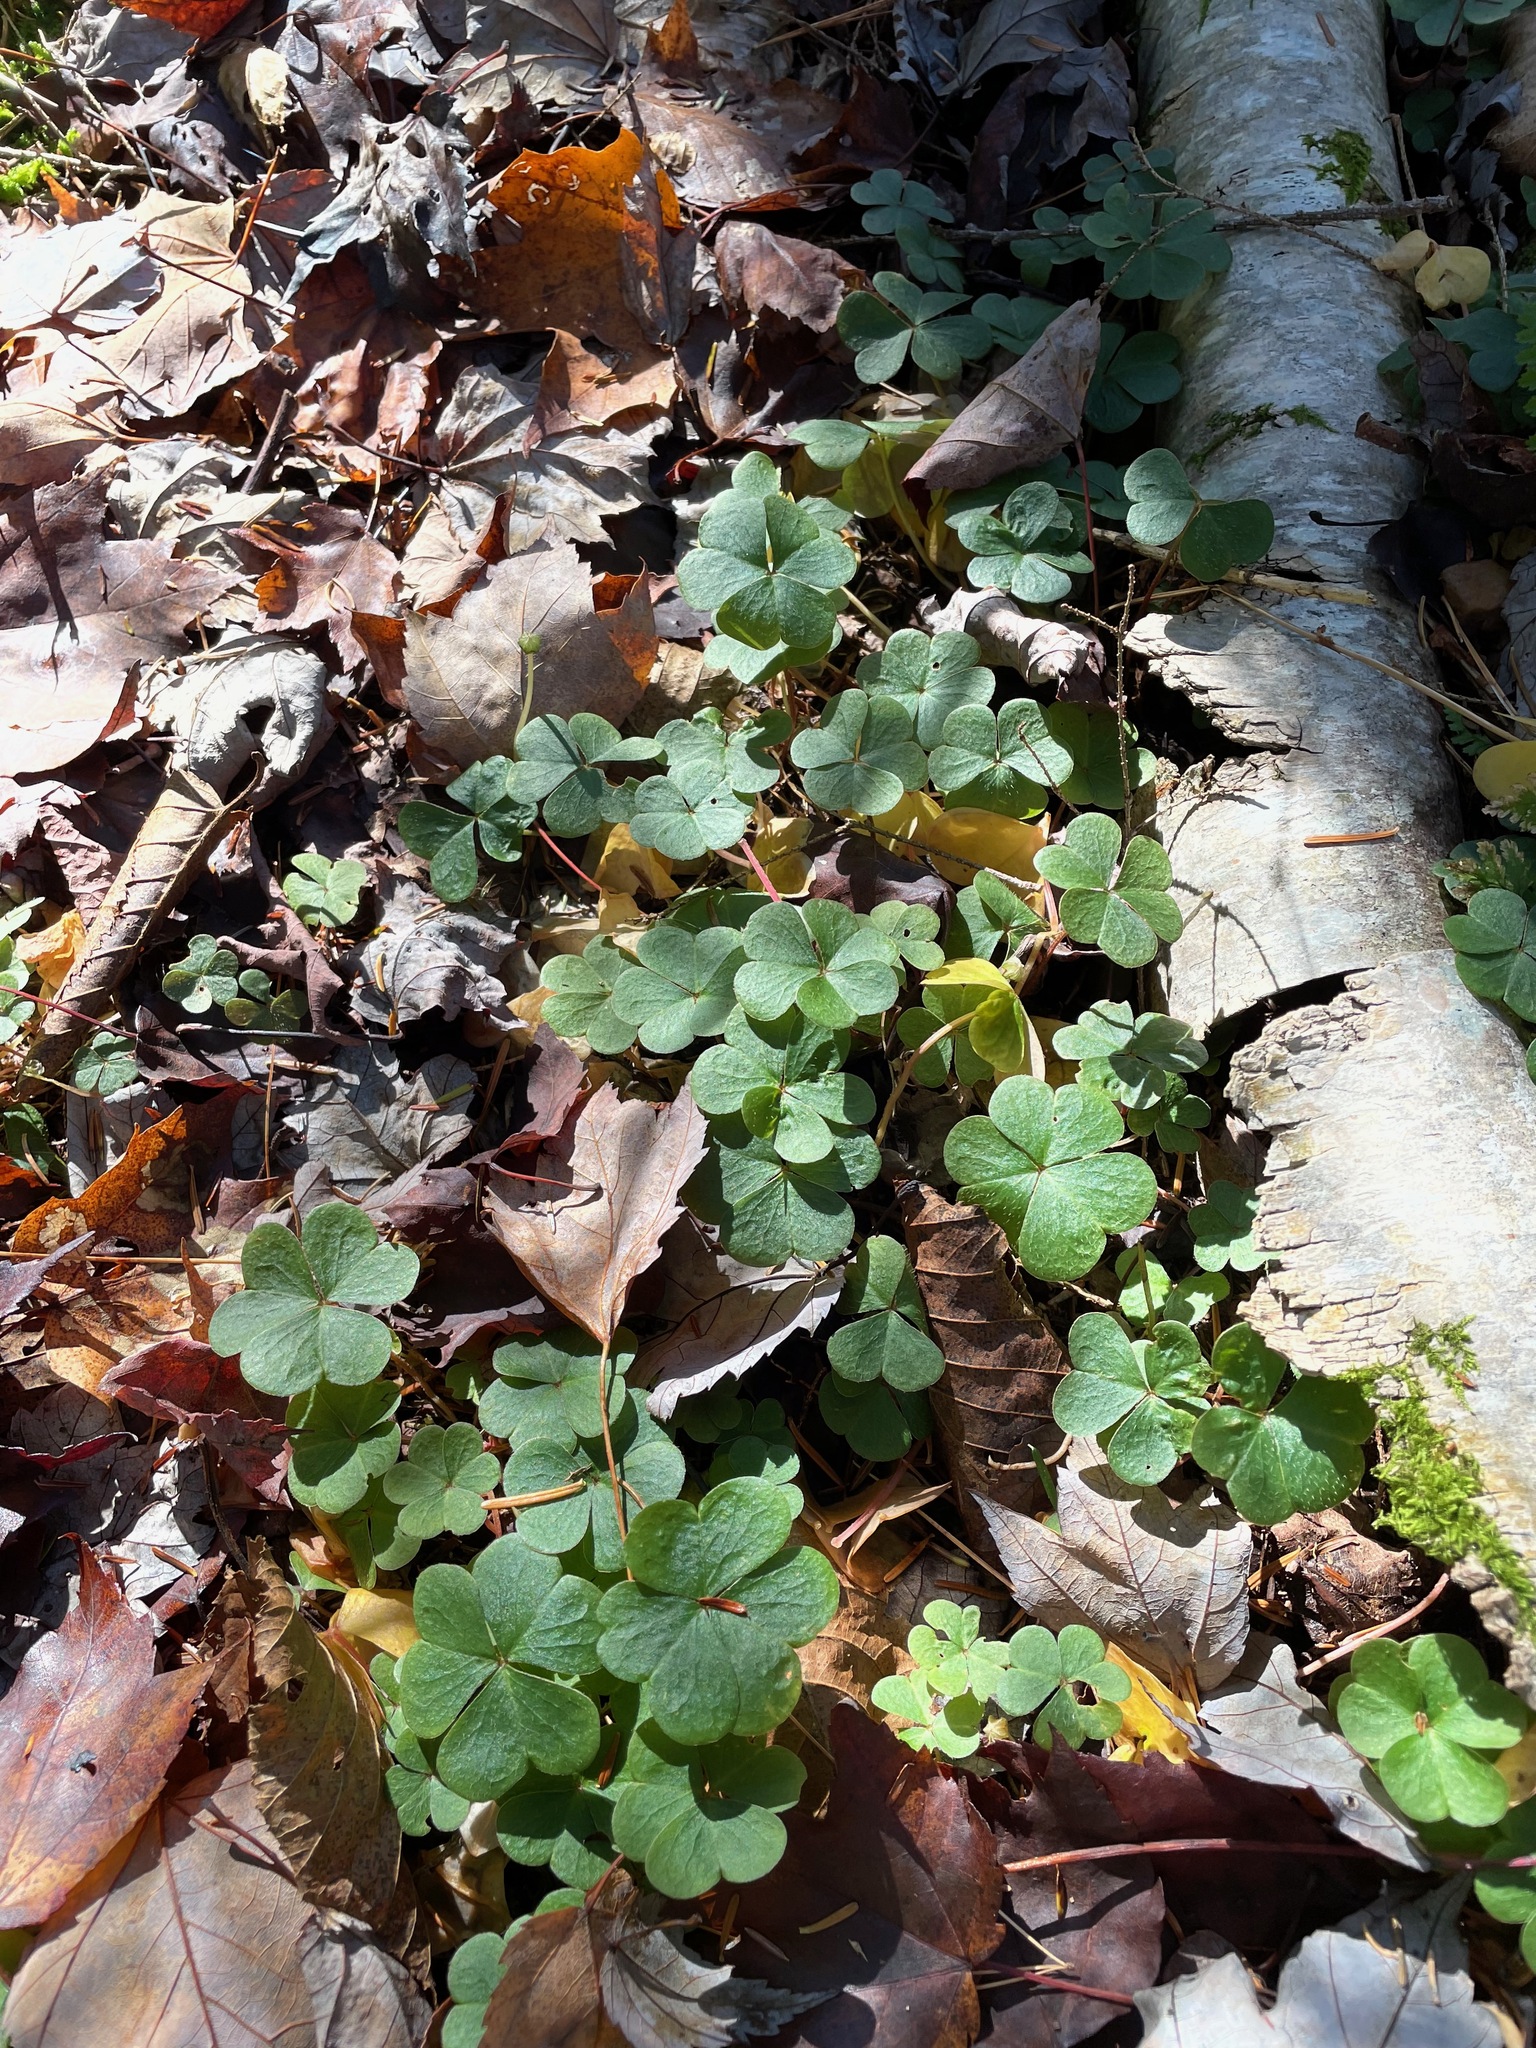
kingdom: Plantae
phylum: Tracheophyta
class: Magnoliopsida
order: Oxalidales
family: Oxalidaceae
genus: Oxalis
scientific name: Oxalis montana
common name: American wood-sorrel
